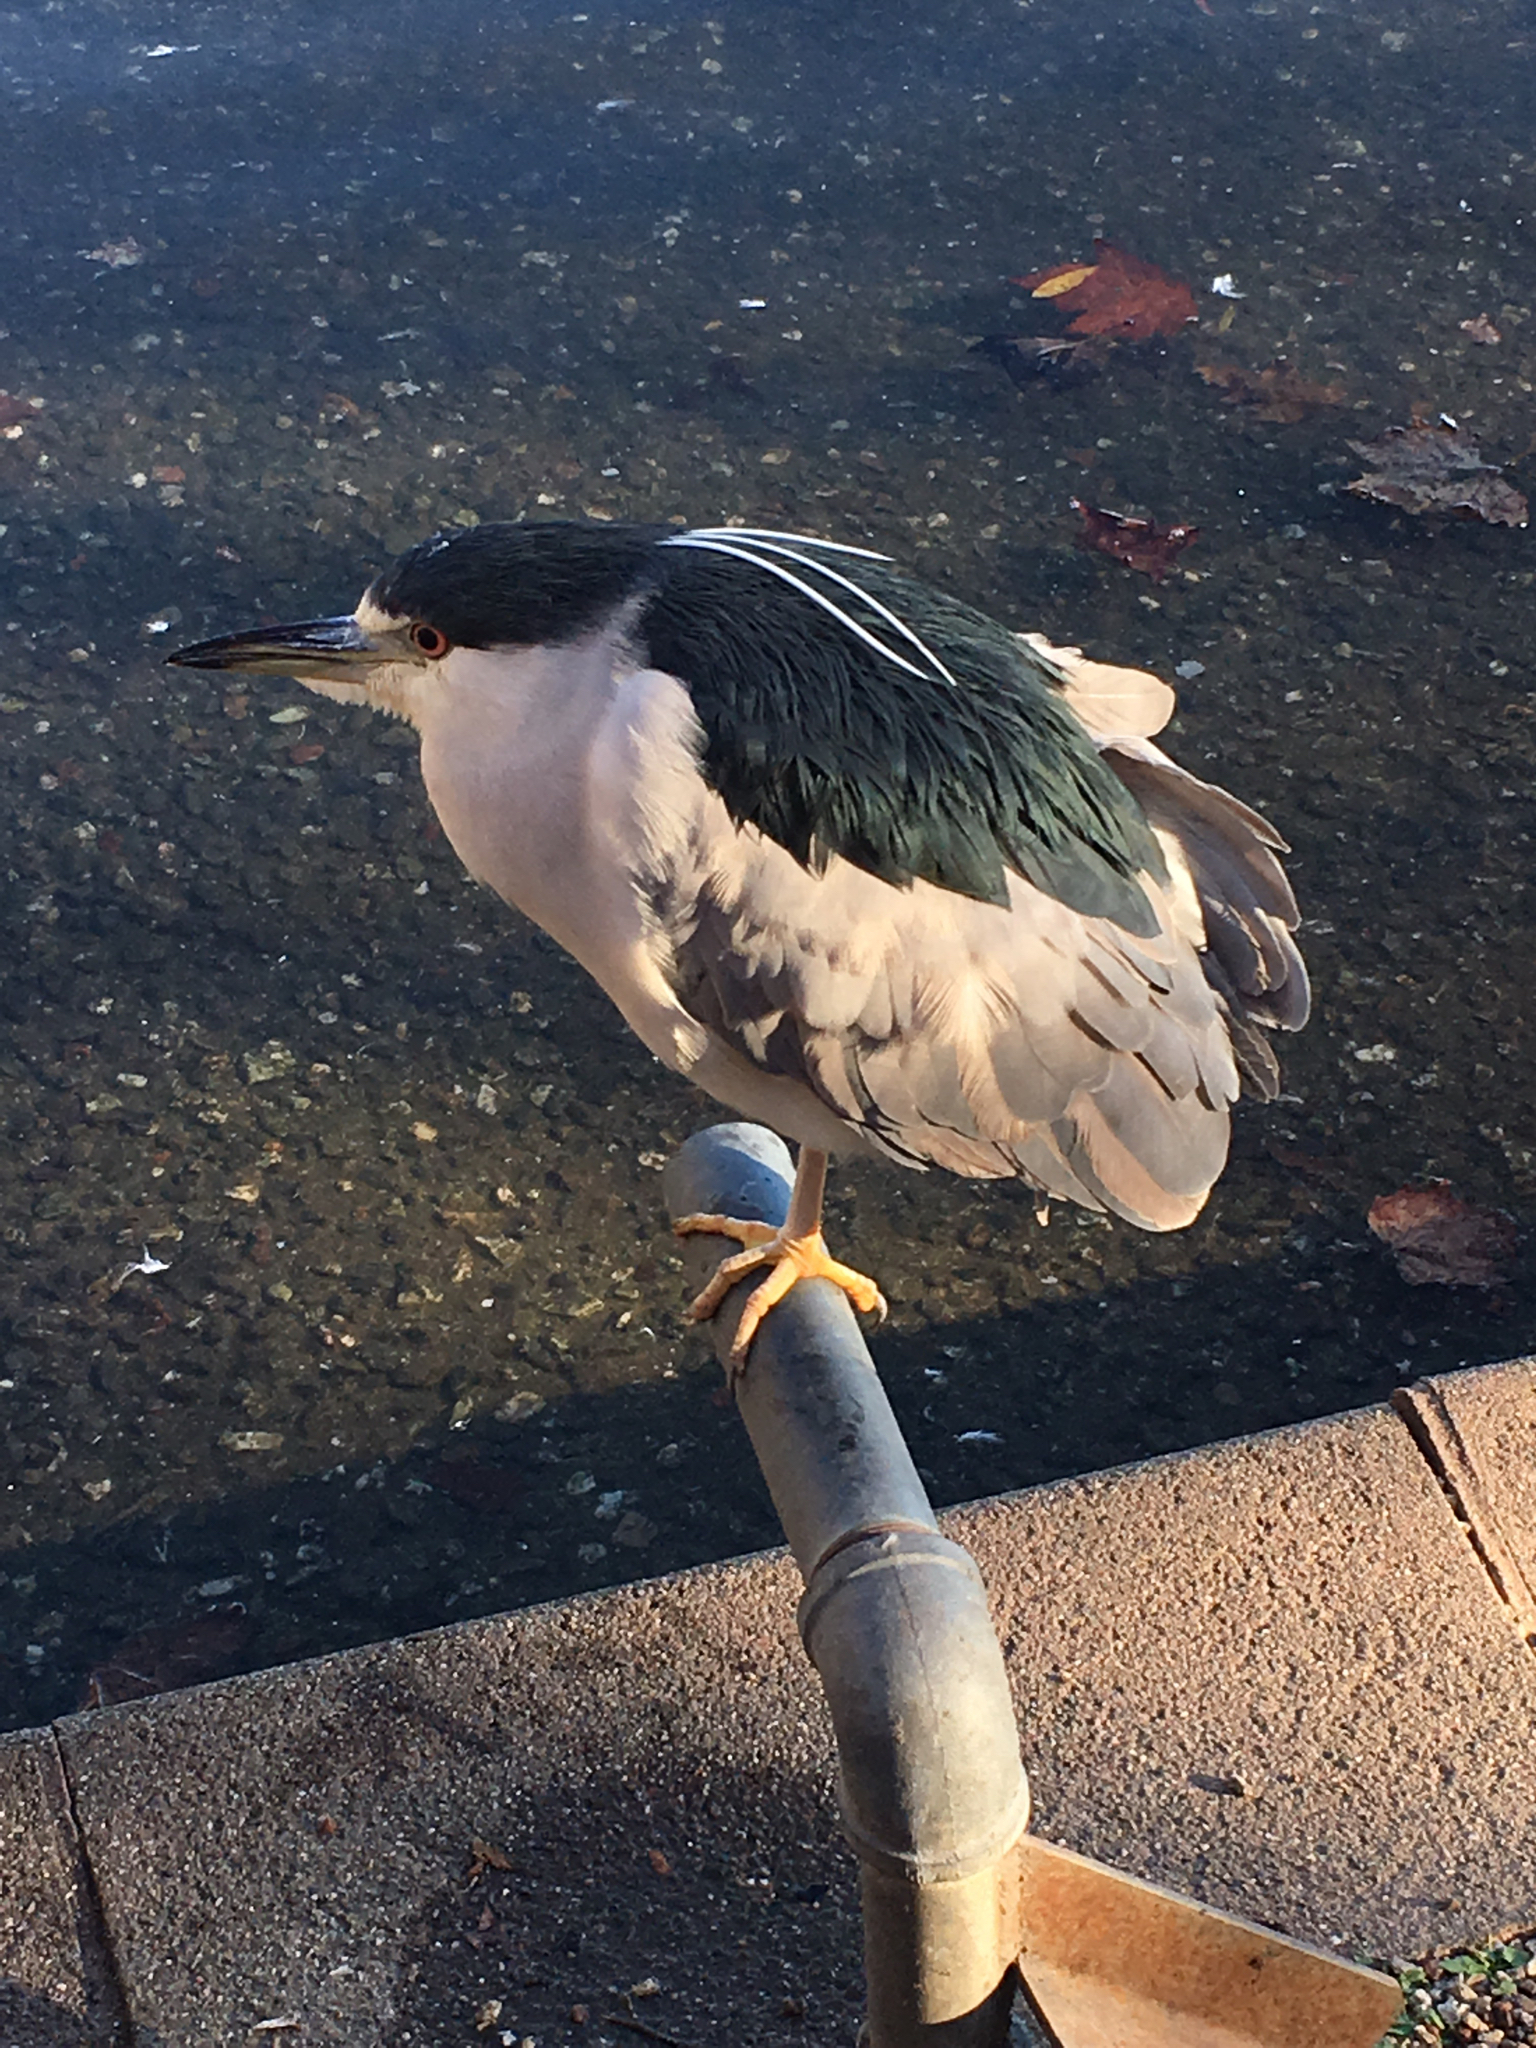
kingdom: Animalia
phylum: Chordata
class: Aves
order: Pelecaniformes
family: Ardeidae
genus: Nycticorax
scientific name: Nycticorax nycticorax
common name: Black-crowned night heron
